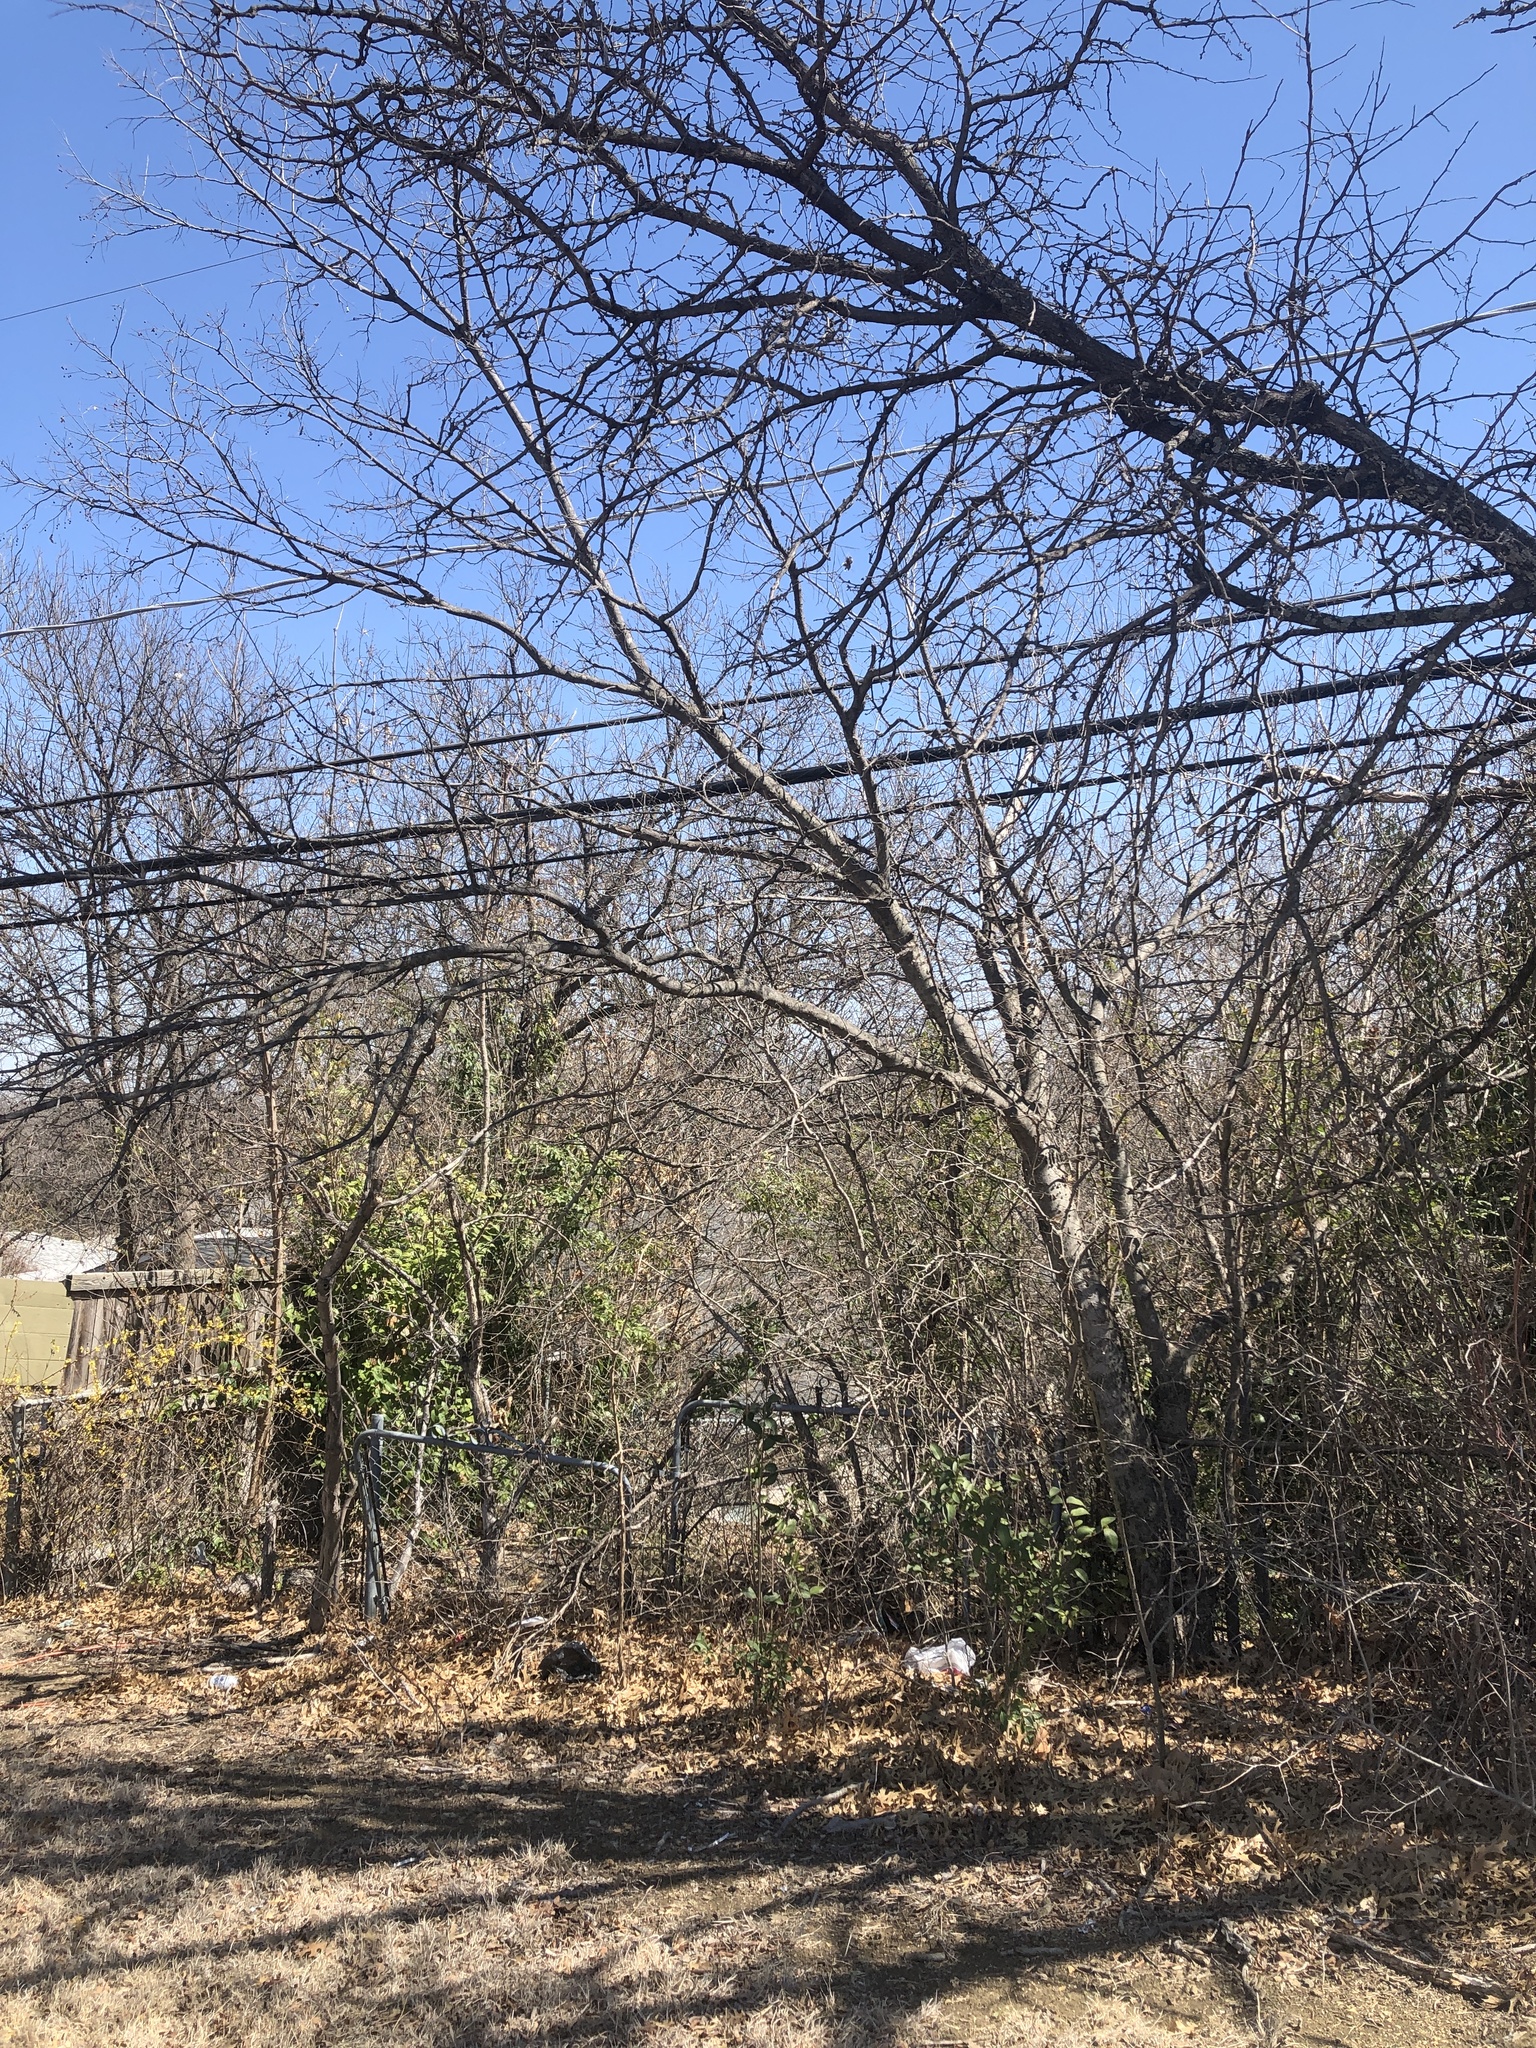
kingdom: Plantae
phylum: Tracheophyta
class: Magnoliopsida
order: Rosales
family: Cannabaceae
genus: Celtis
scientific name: Celtis laevigata
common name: Sugarberry
